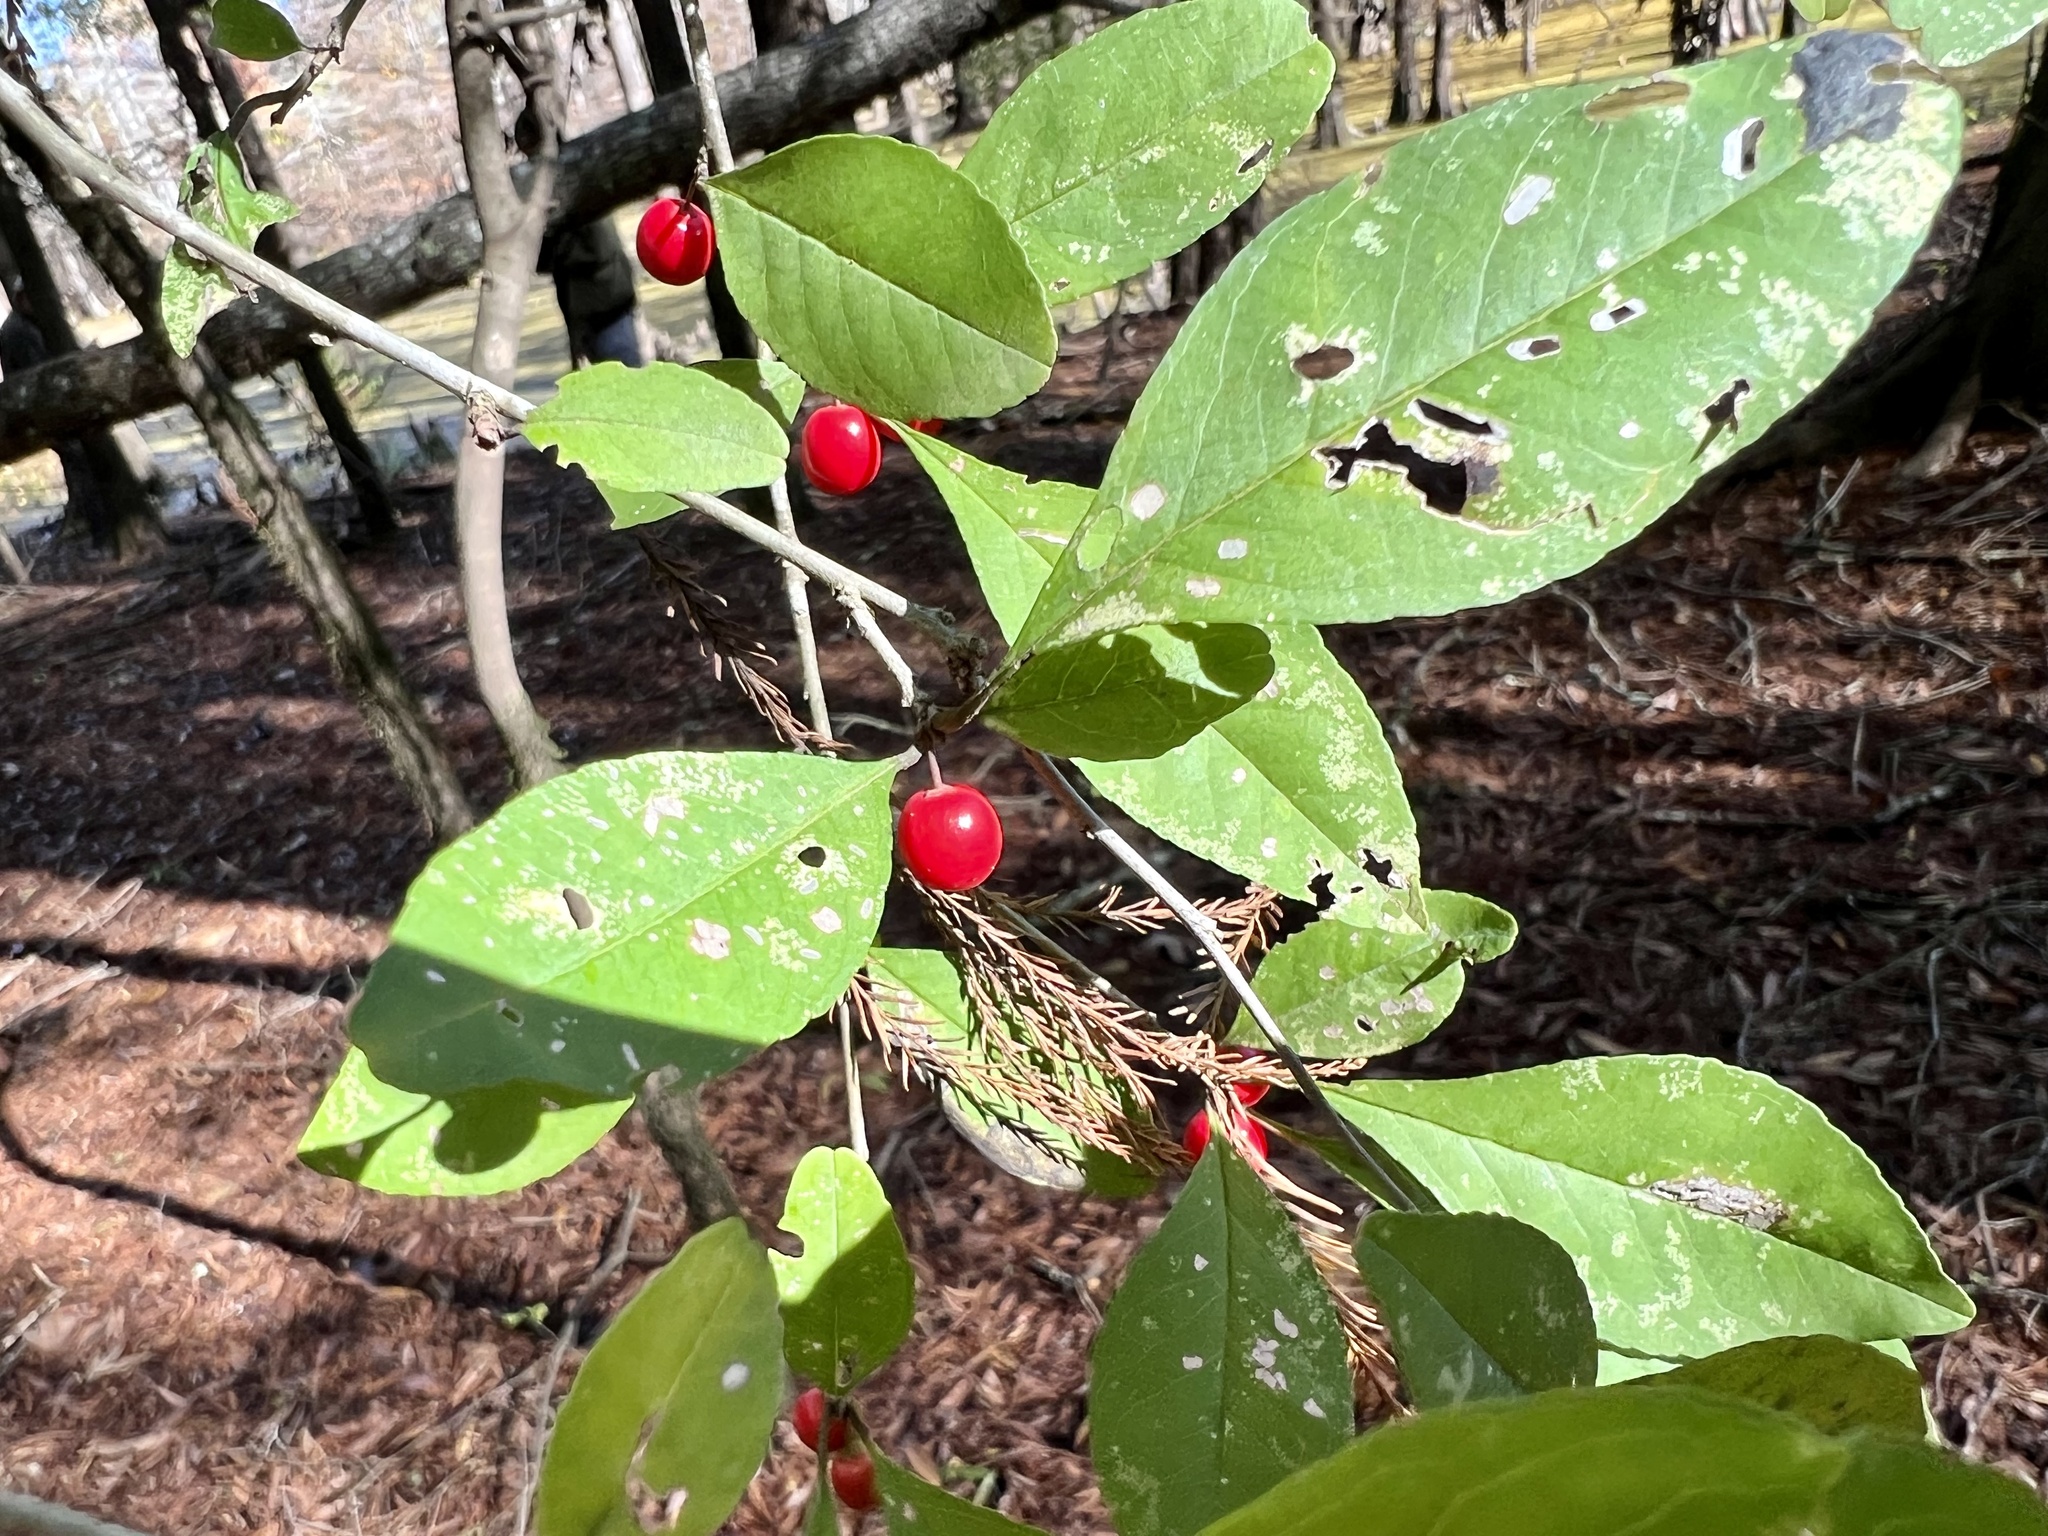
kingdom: Plantae
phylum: Tracheophyta
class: Magnoliopsida
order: Aquifoliales
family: Aquifoliaceae
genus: Ilex
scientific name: Ilex decidua
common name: Possum-haw
